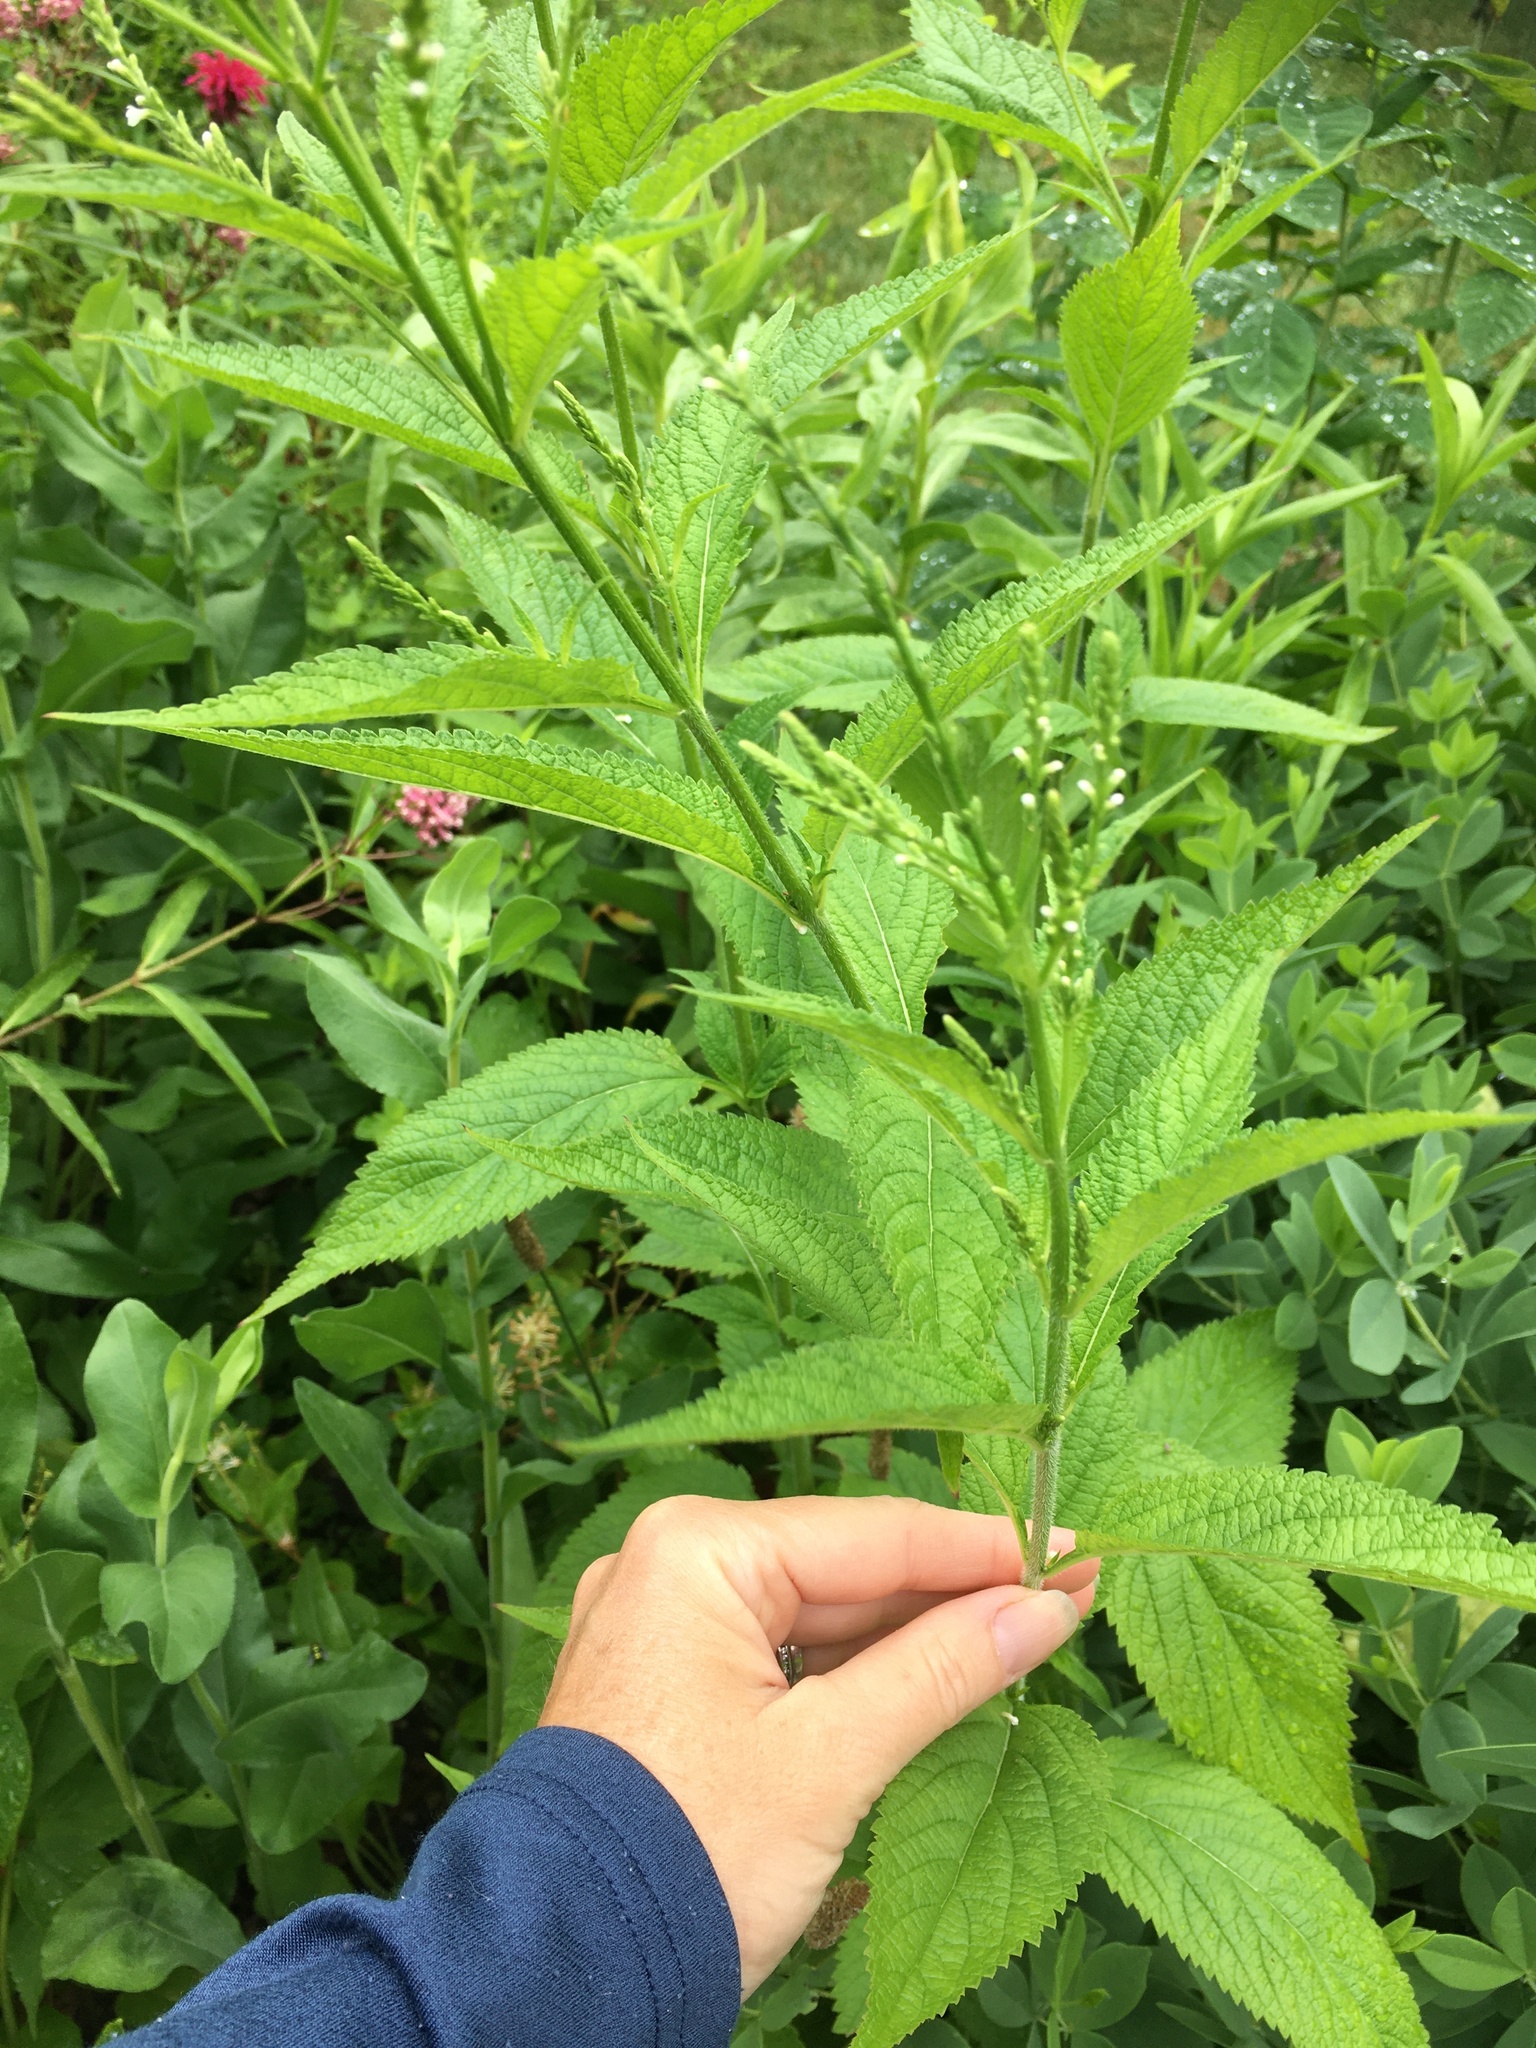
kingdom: Plantae
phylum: Tracheophyta
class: Magnoliopsida
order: Lamiales
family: Verbenaceae
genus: Verbena
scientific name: Verbena urticifolia
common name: Nettle-leaved vervain
